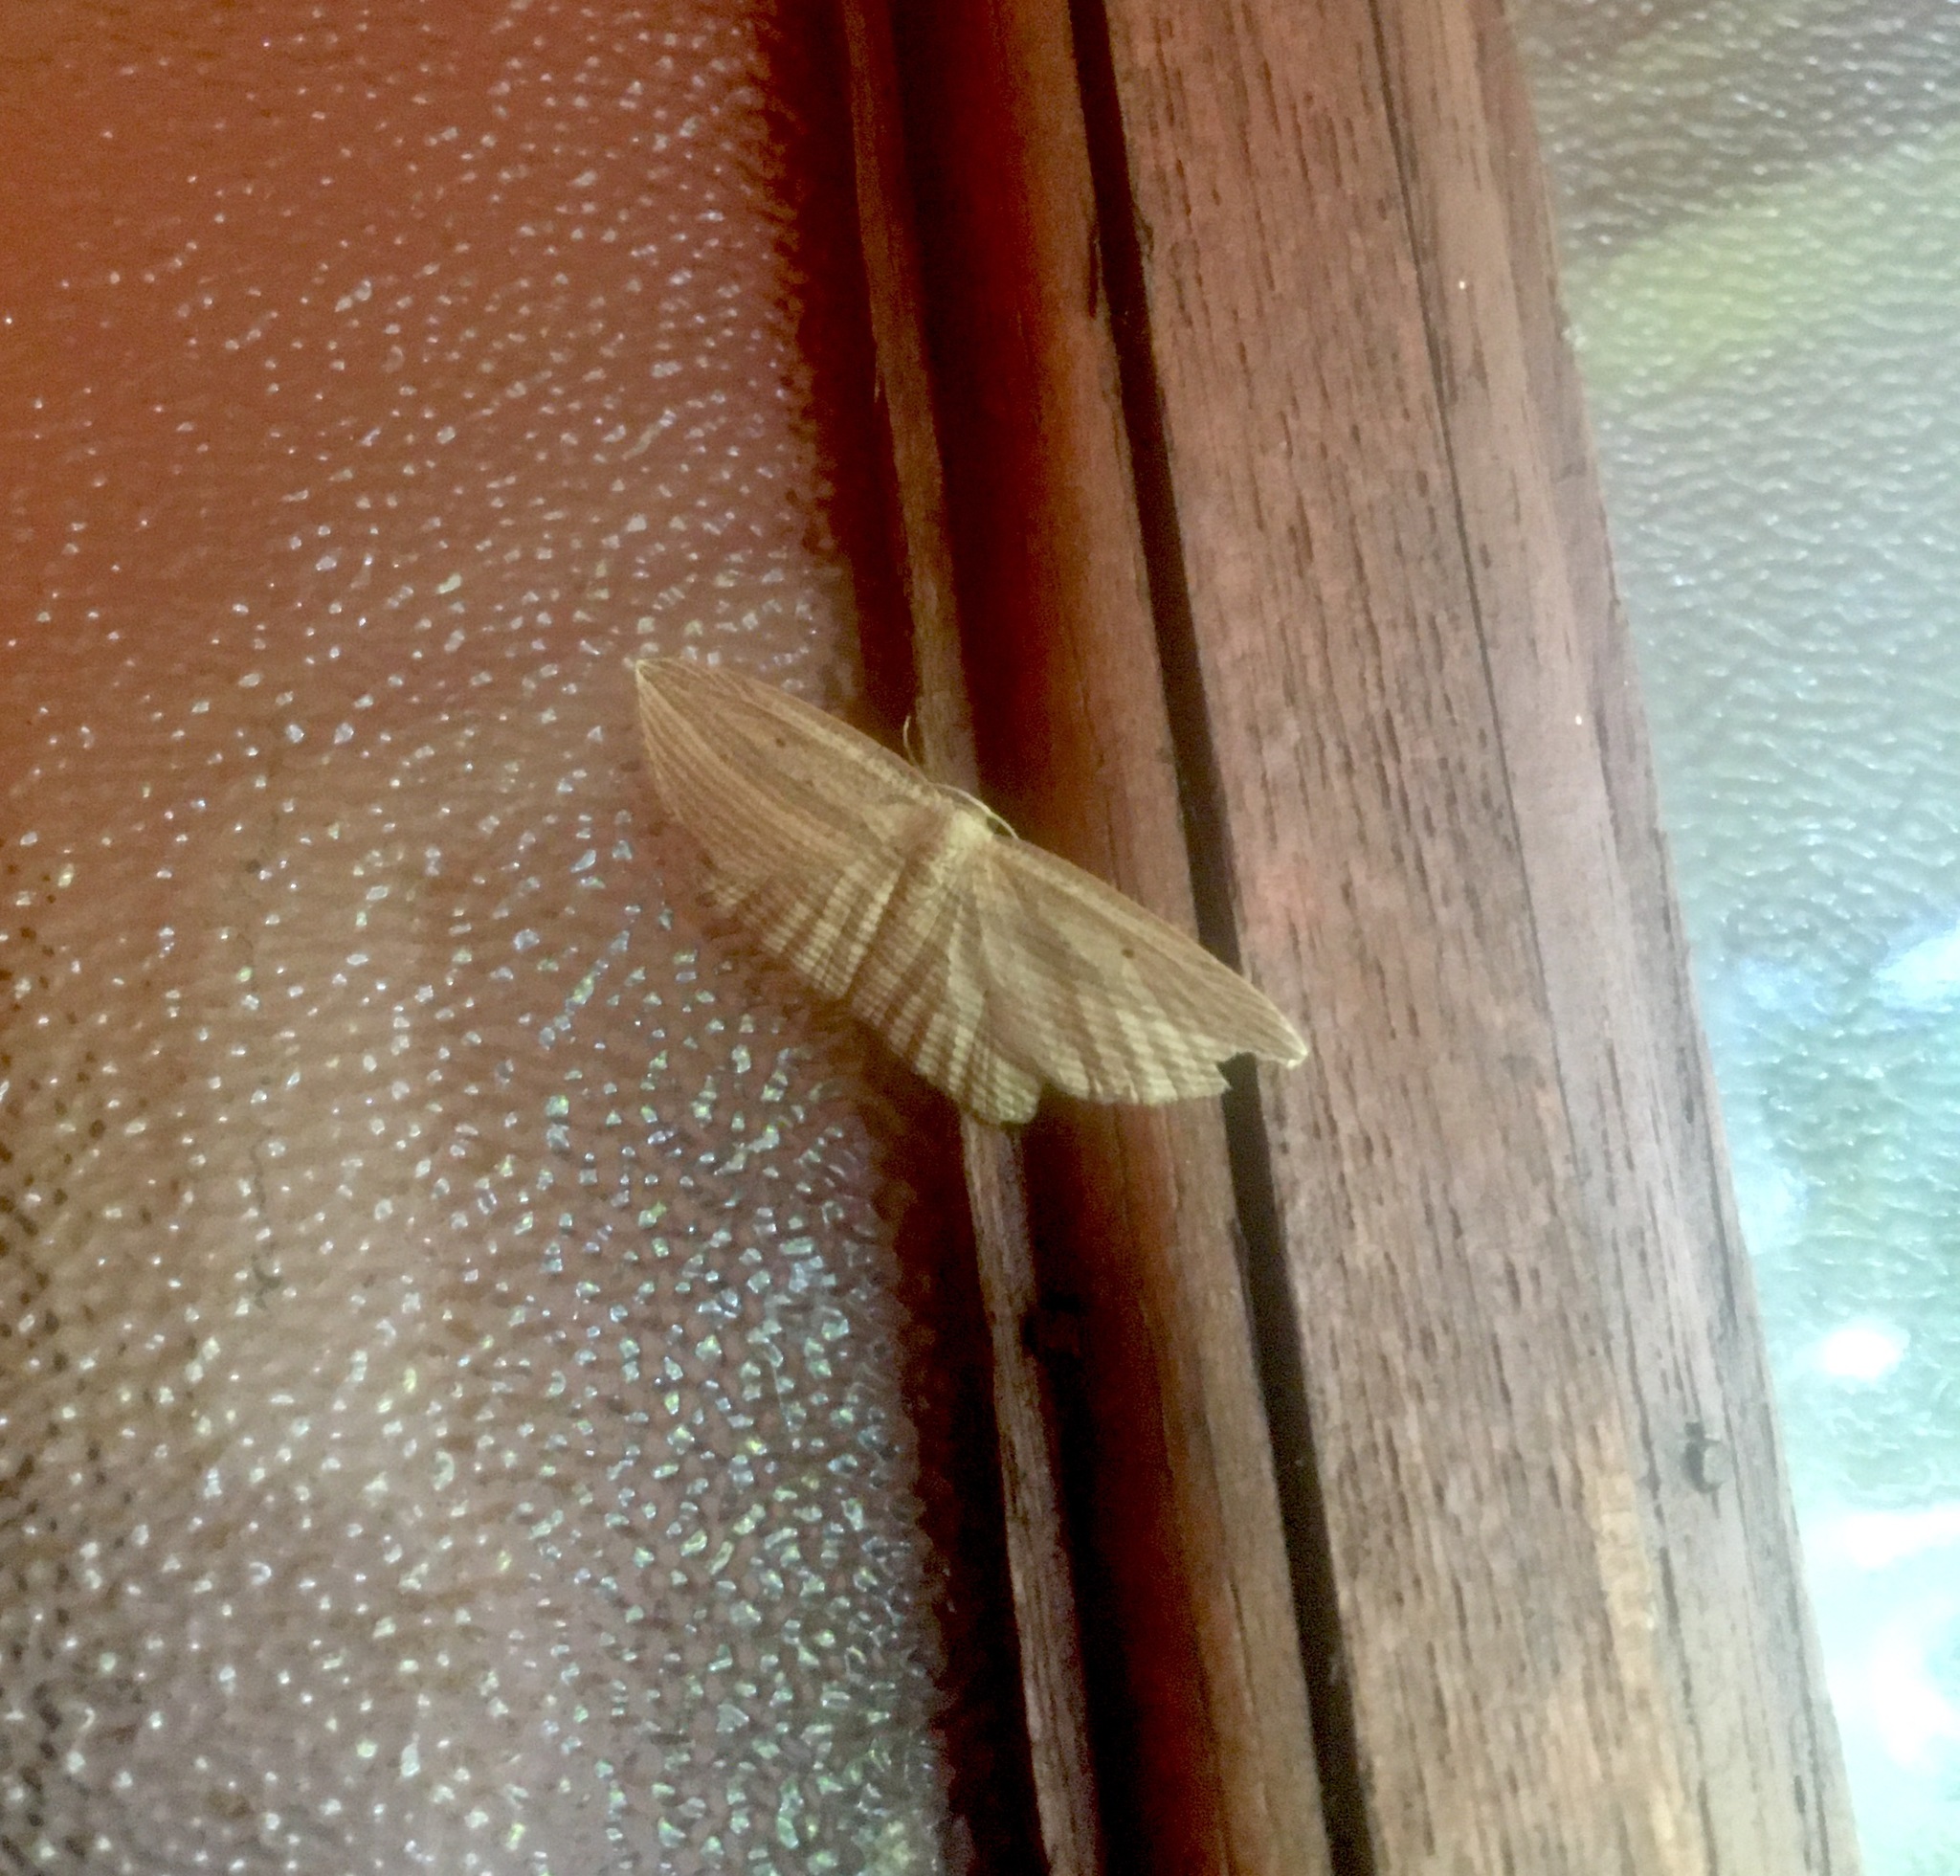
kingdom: Animalia
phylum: Arthropoda
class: Insecta
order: Lepidoptera
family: Geometridae
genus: Epiphryne
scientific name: Epiphryne verriculata
